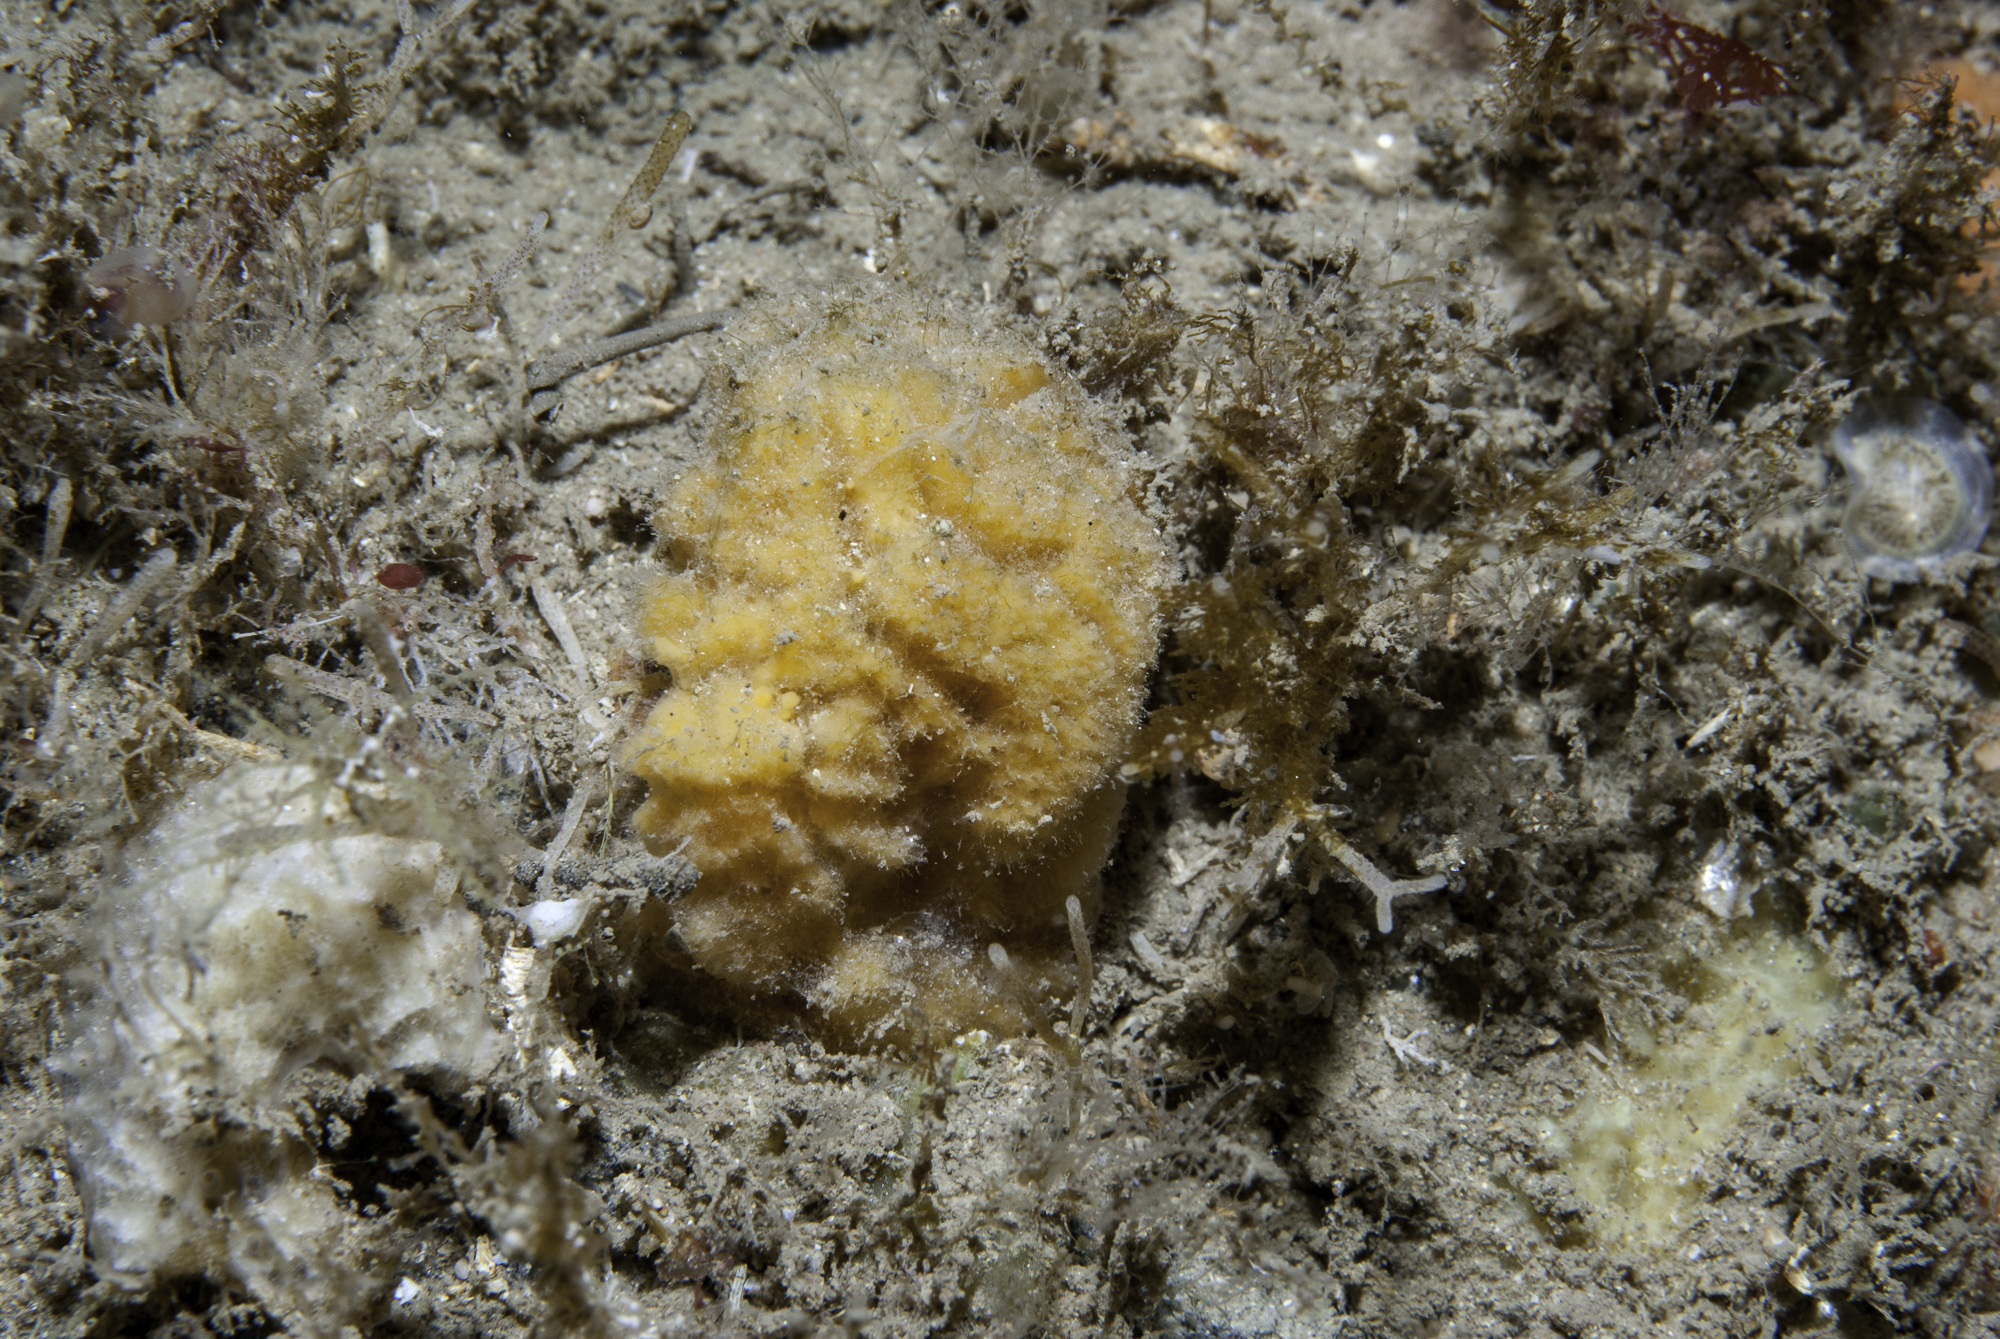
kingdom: Animalia
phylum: Porifera
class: Demospongiae
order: Axinellida
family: Axinellidae
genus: Axinella
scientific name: Axinella parva
